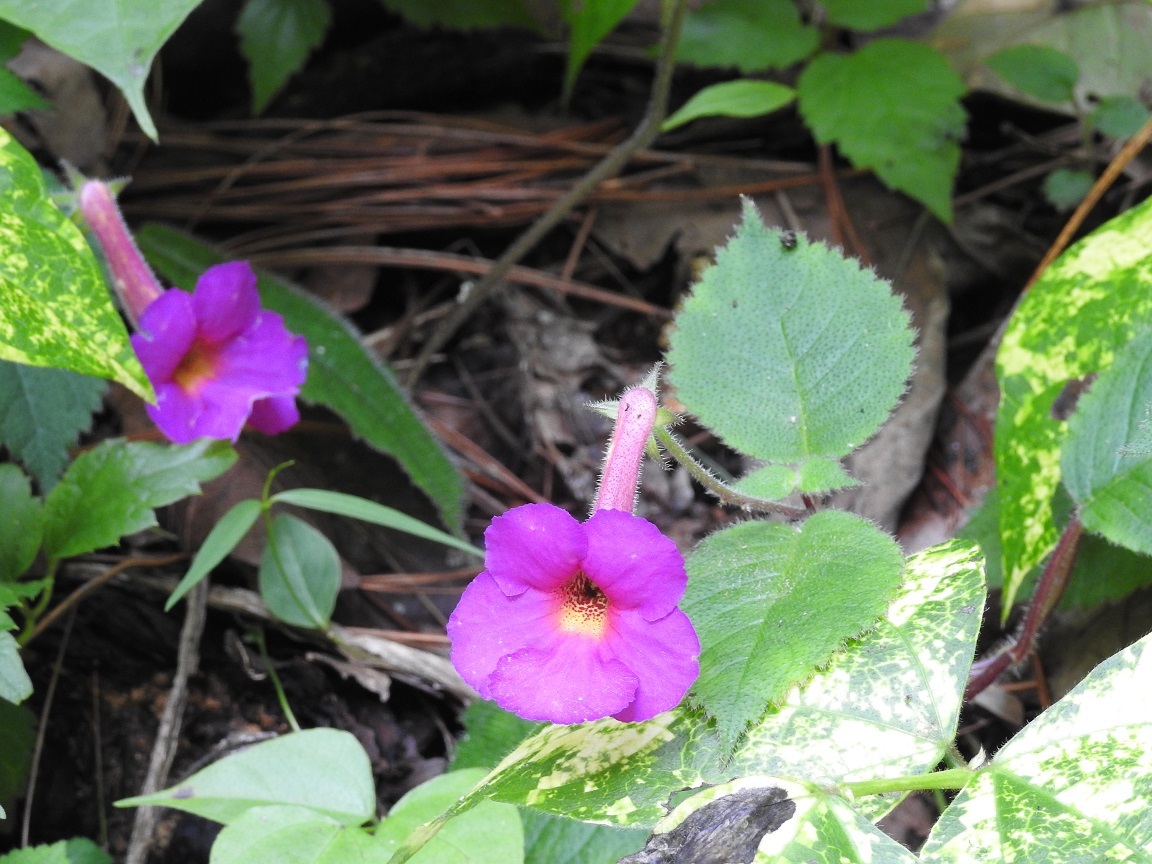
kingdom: Plantae
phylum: Tracheophyta
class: Magnoliopsida
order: Lamiales
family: Gesneriaceae
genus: Achimenes
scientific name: Achimenes skinneri
